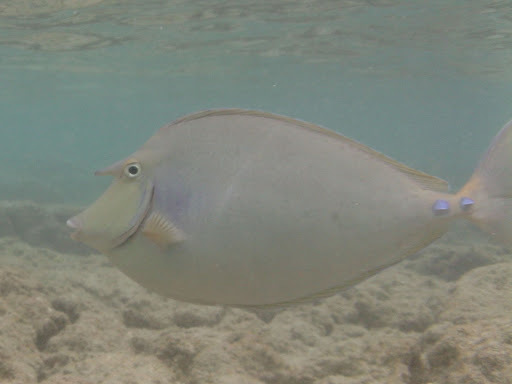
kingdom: Animalia
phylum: Chordata
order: Perciformes
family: Acanthuridae
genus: Naso
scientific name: Naso unicornis
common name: Bluespine unicornfish
